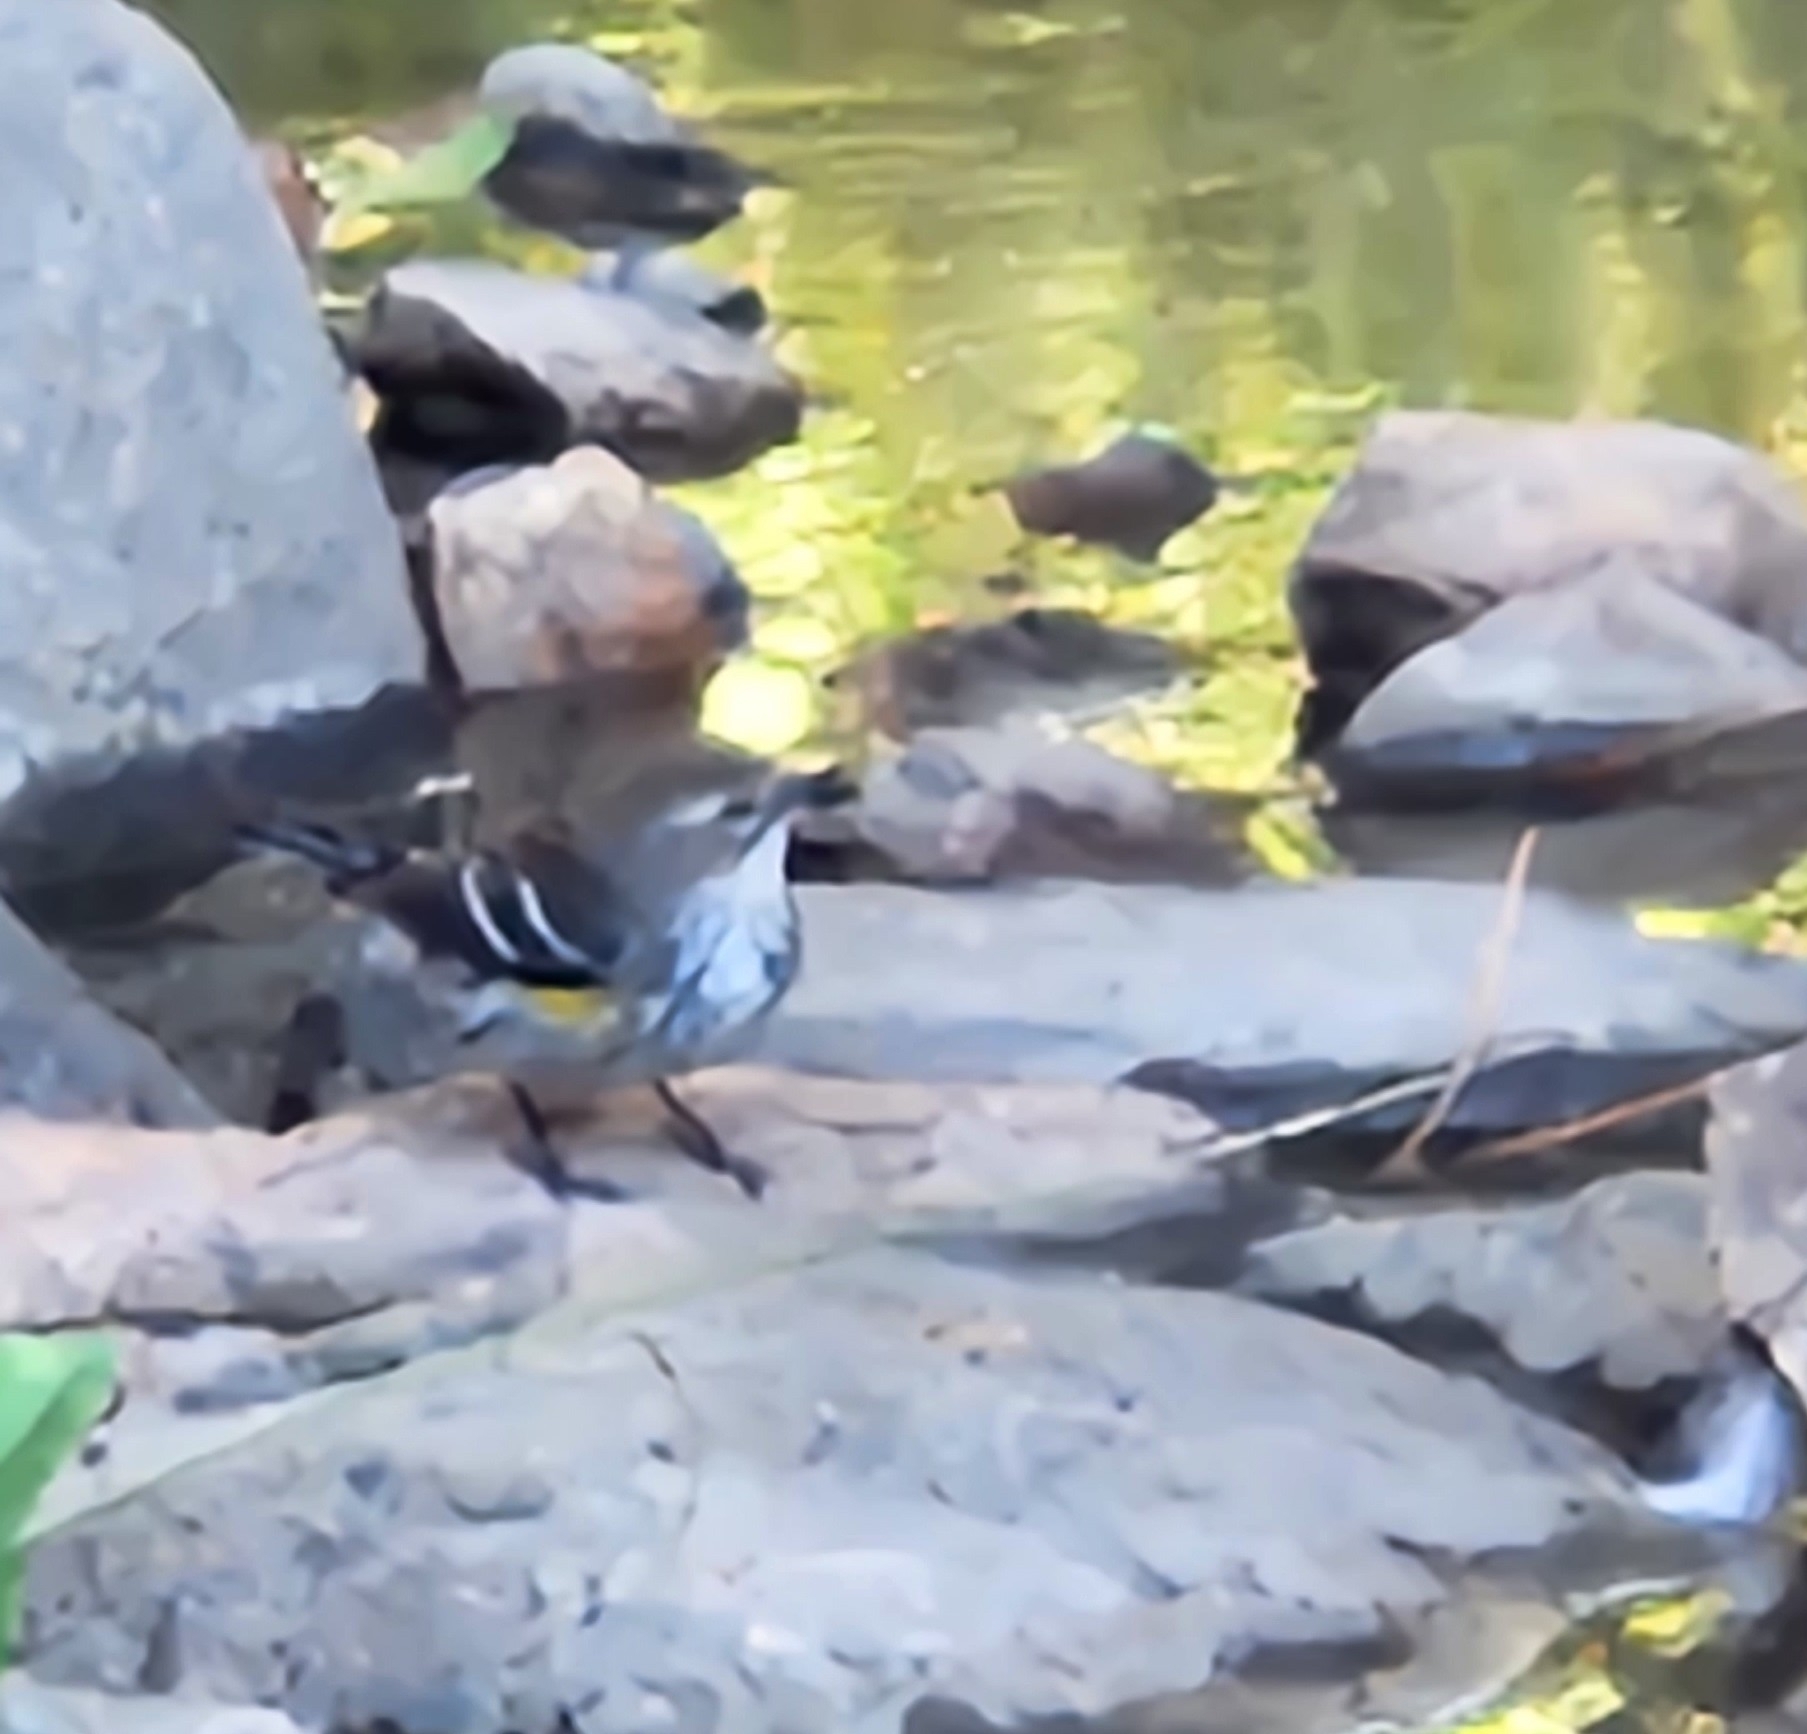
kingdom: Animalia
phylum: Chordata
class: Aves
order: Passeriformes
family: Parulidae
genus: Setophaga
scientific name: Setophaga coronata
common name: Myrtle warbler
